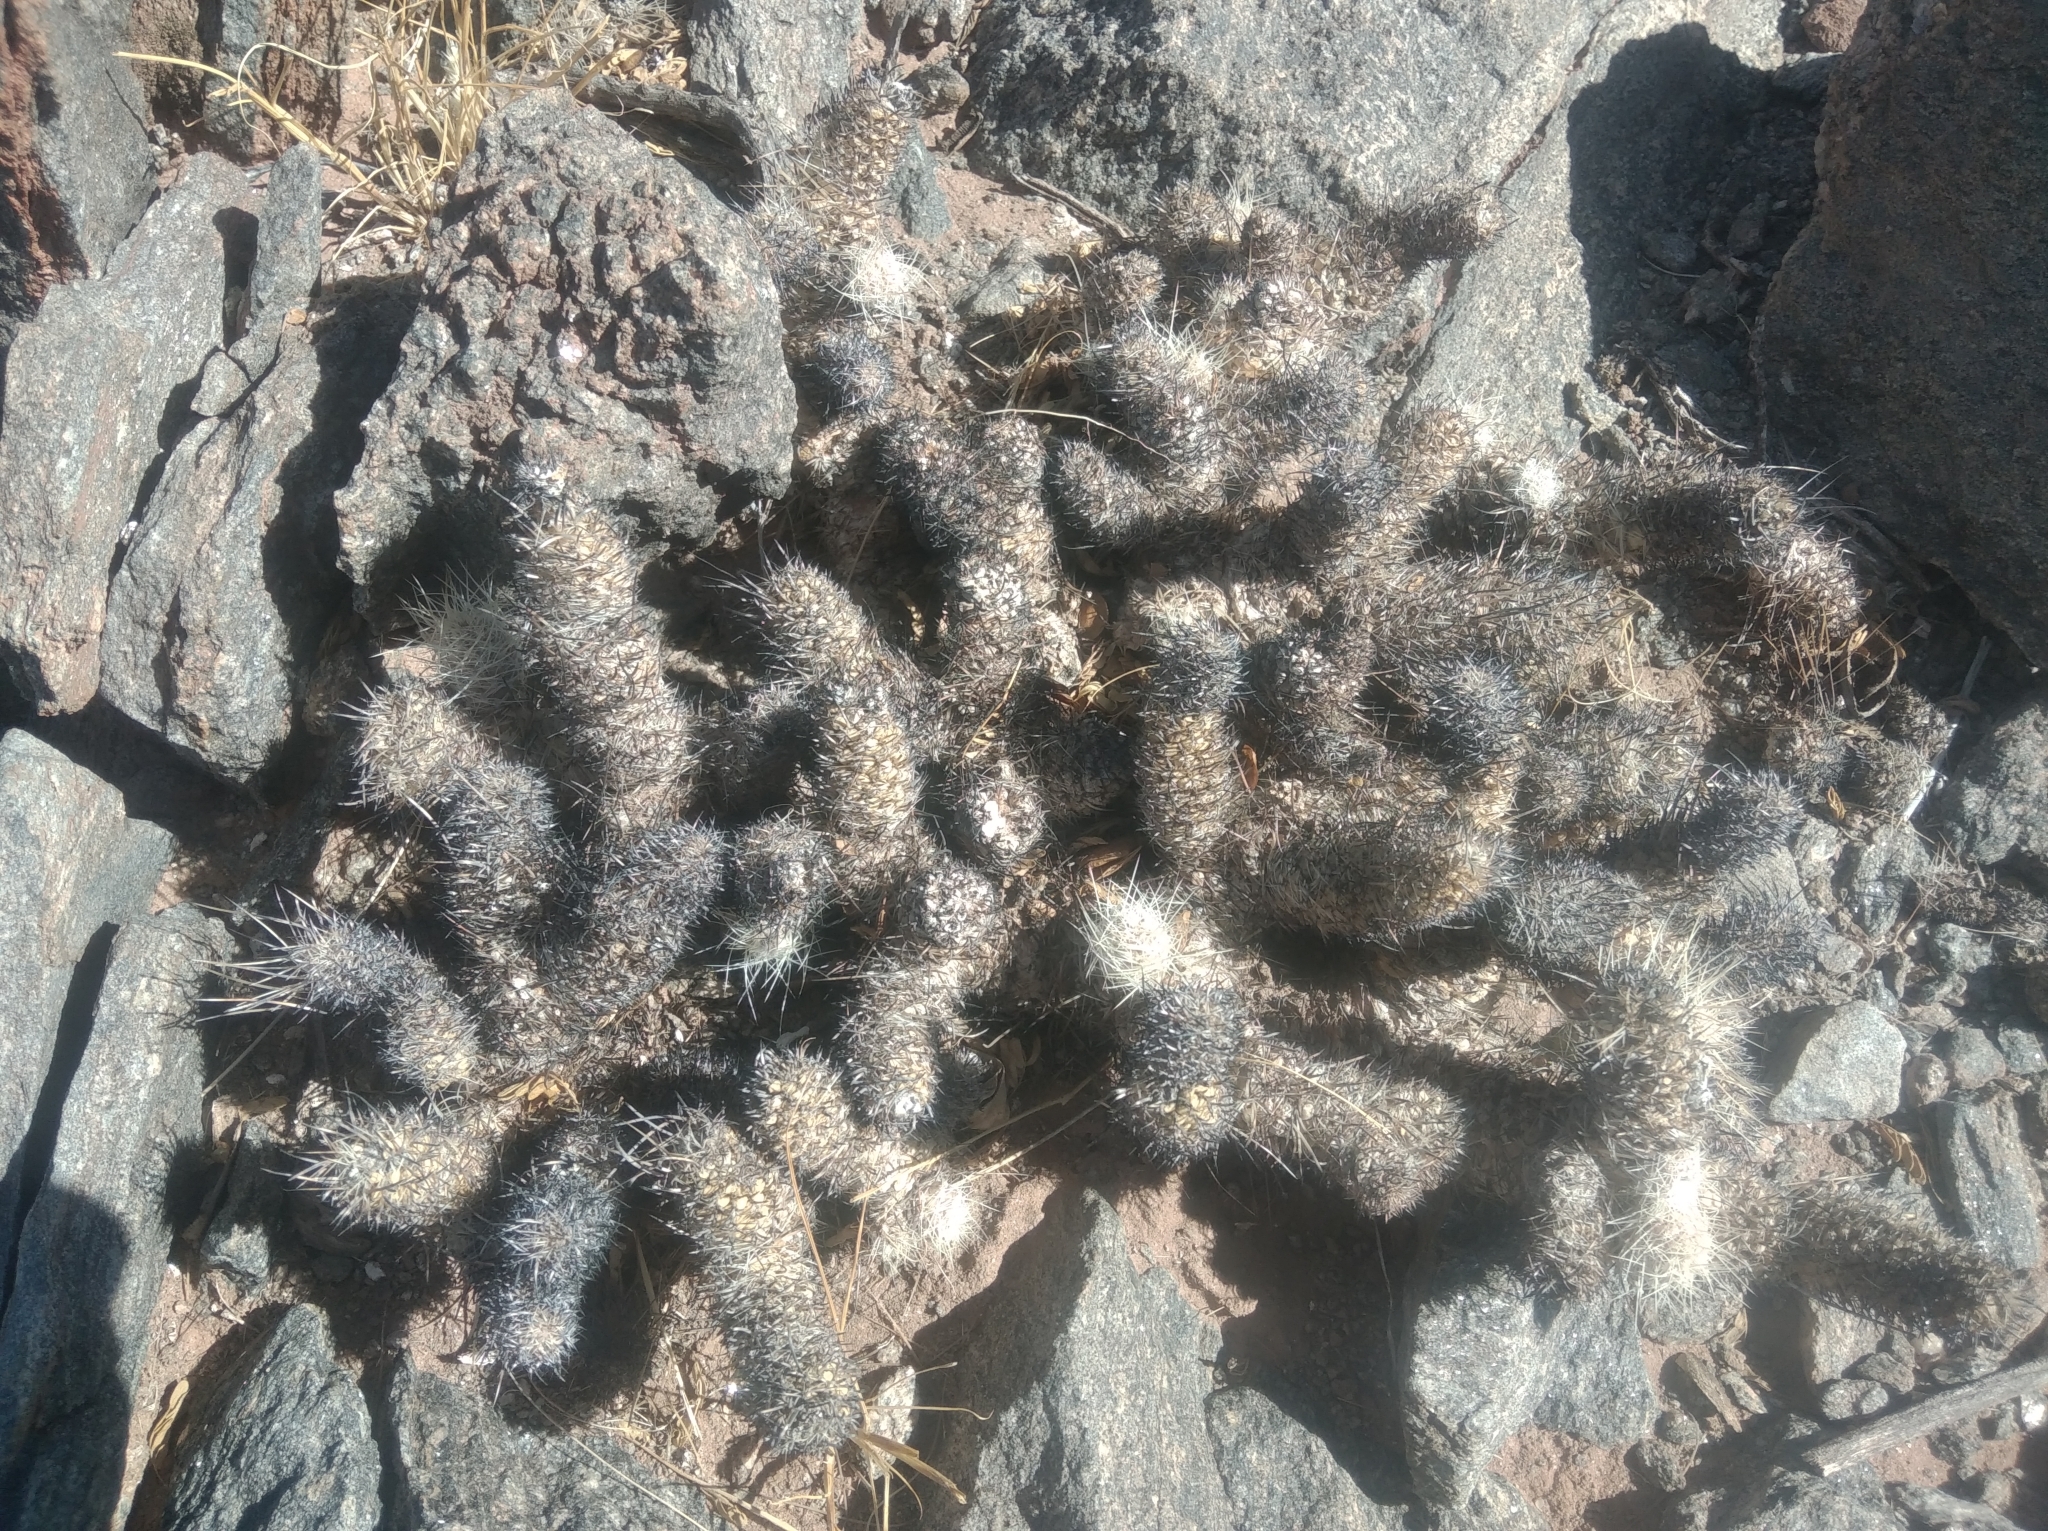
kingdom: Plantae
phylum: Tracheophyta
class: Magnoliopsida
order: Caryophyllales
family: Cactaceae
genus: Tephrocactus
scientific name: Tephrocactus weberi
